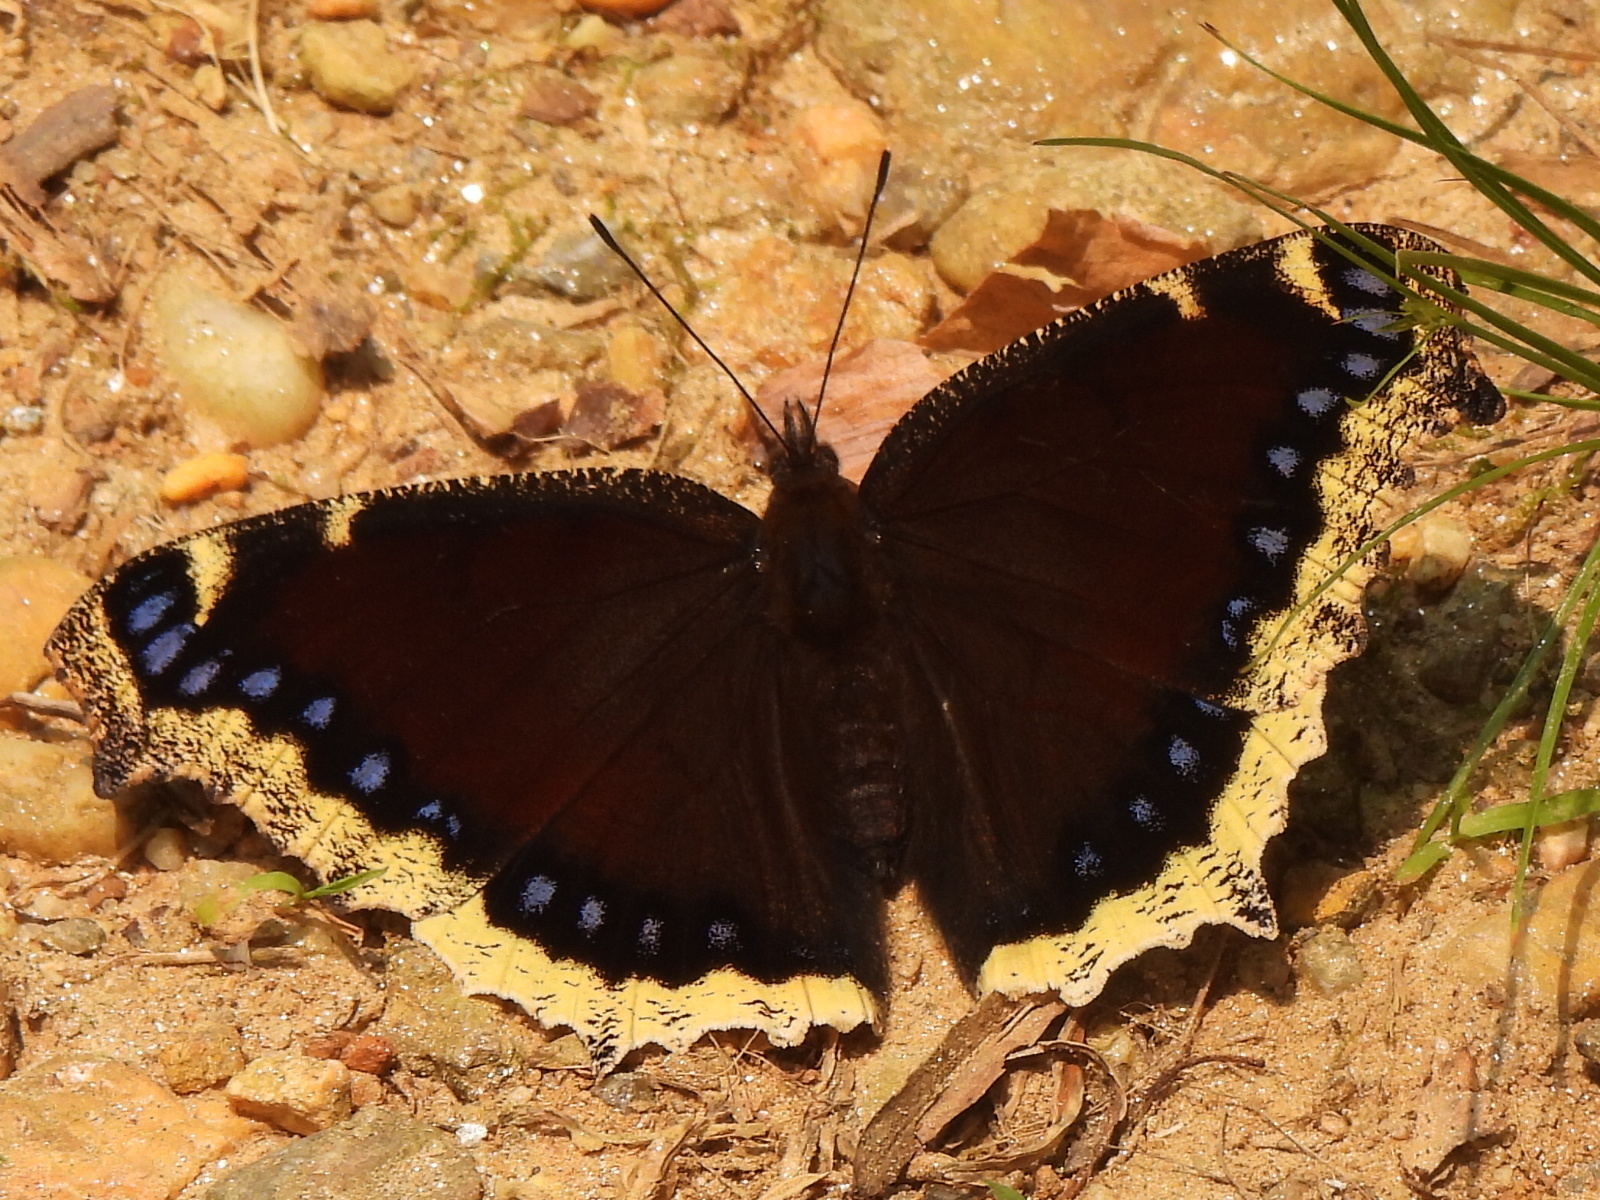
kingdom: Animalia
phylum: Arthropoda
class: Insecta
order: Lepidoptera
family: Nymphalidae
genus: Nymphalis
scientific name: Nymphalis antiopa
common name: Camberwell beauty
